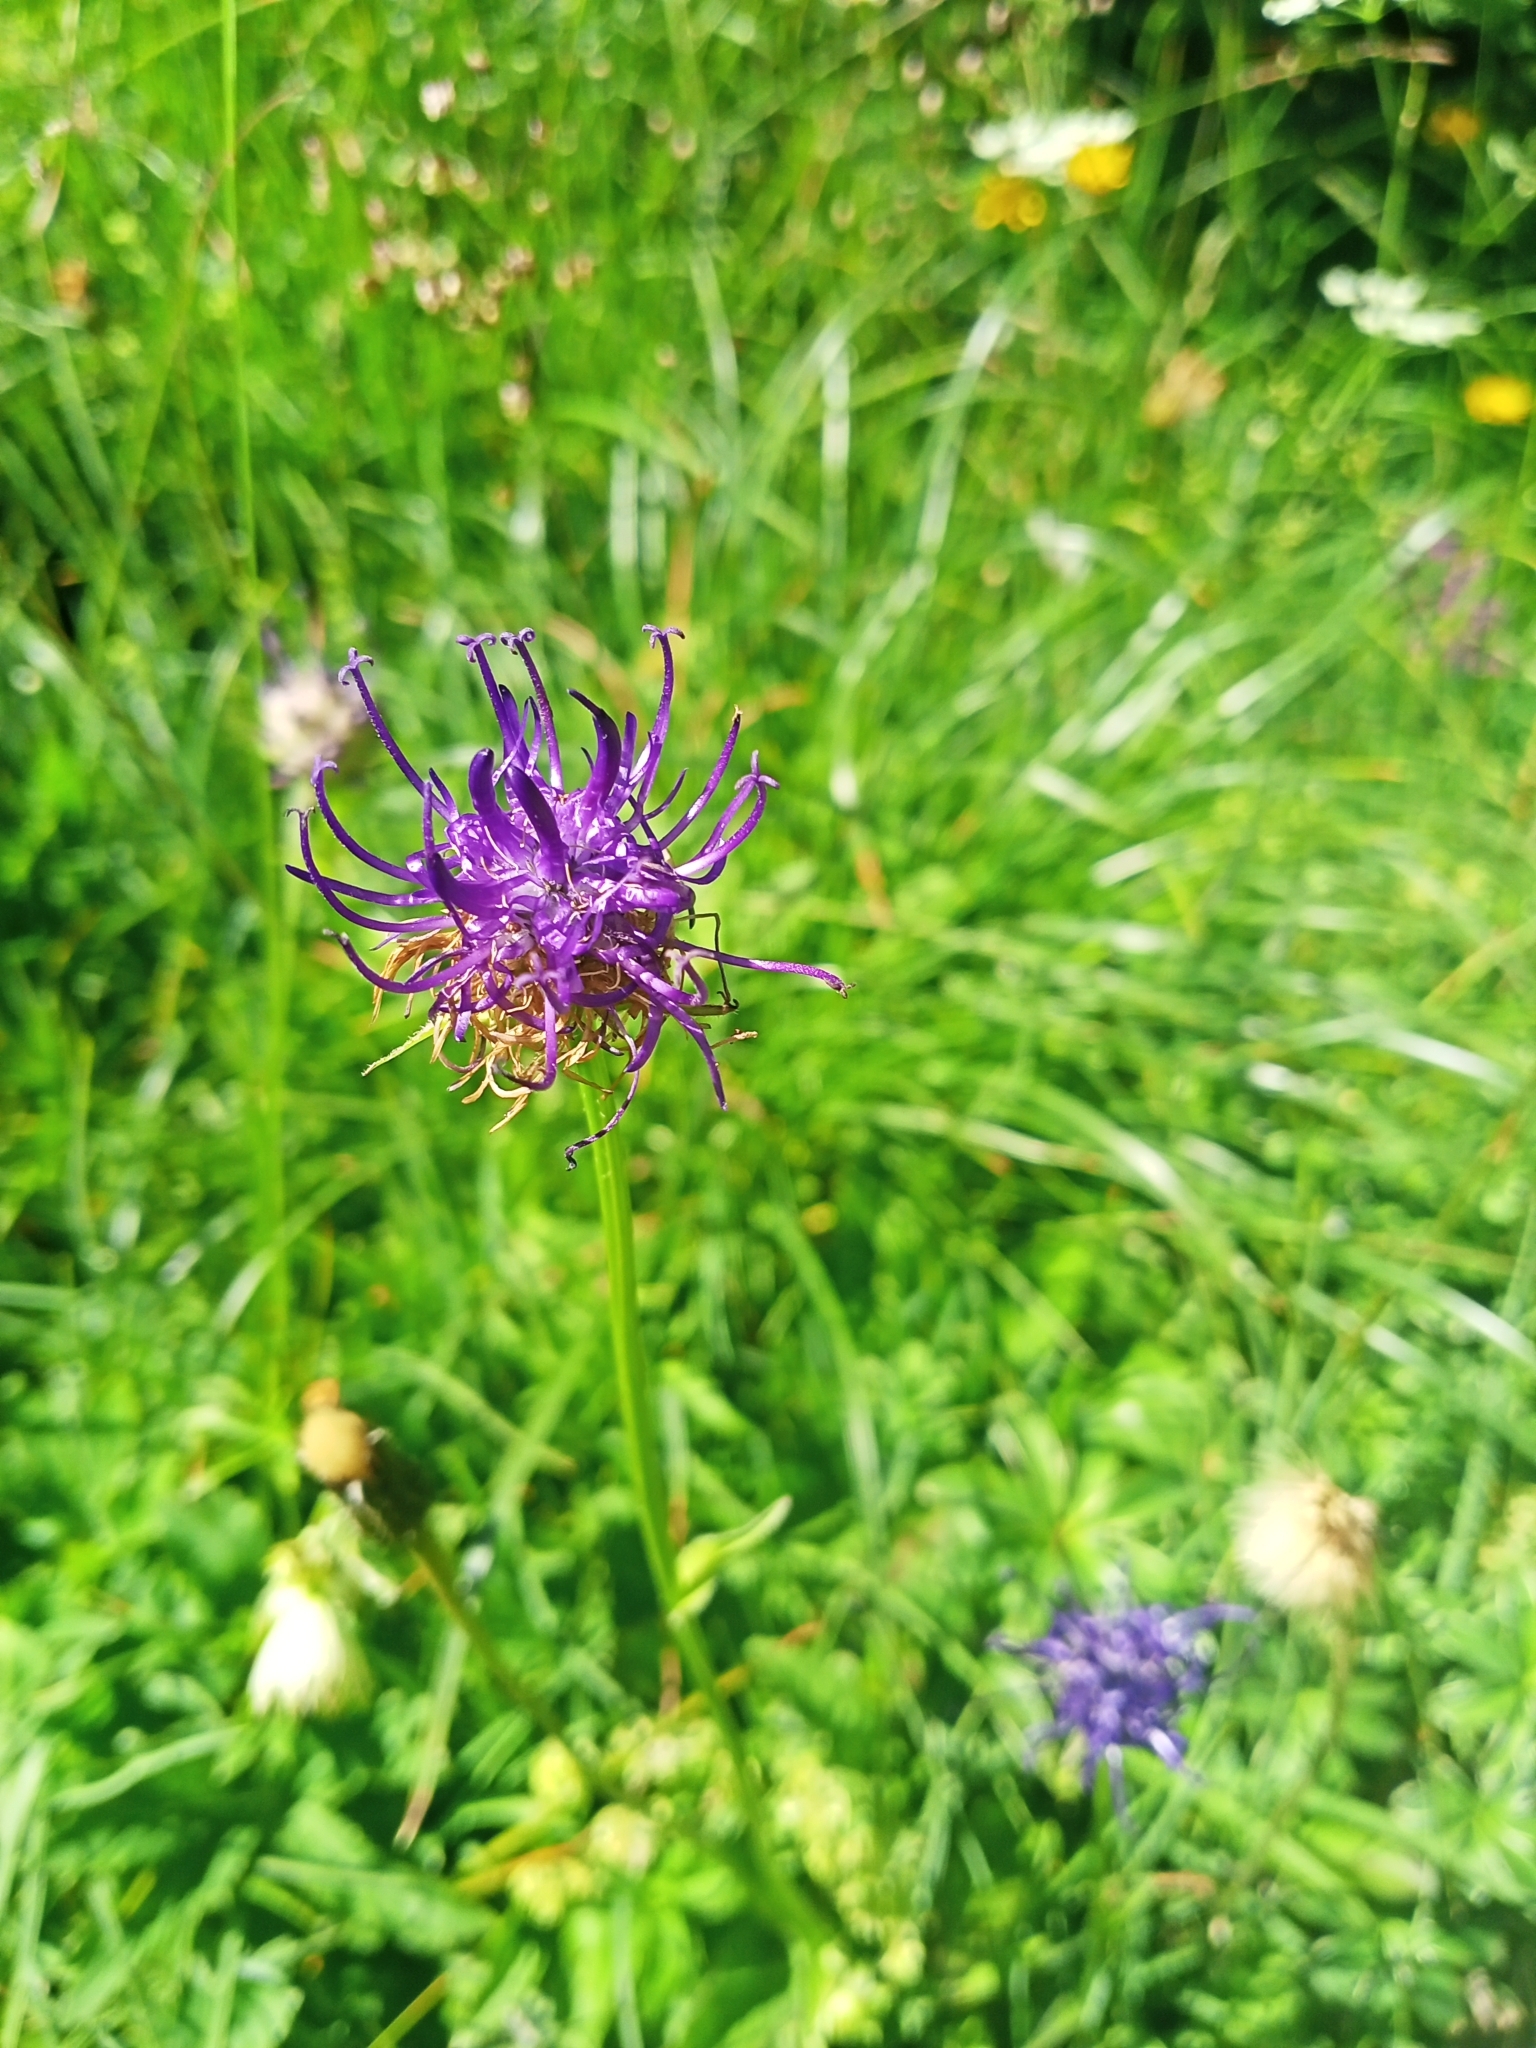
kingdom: Plantae
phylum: Tracheophyta
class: Magnoliopsida
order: Asterales
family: Campanulaceae
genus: Phyteuma
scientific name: Phyteuma orbiculare
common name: Round-headed rampion
